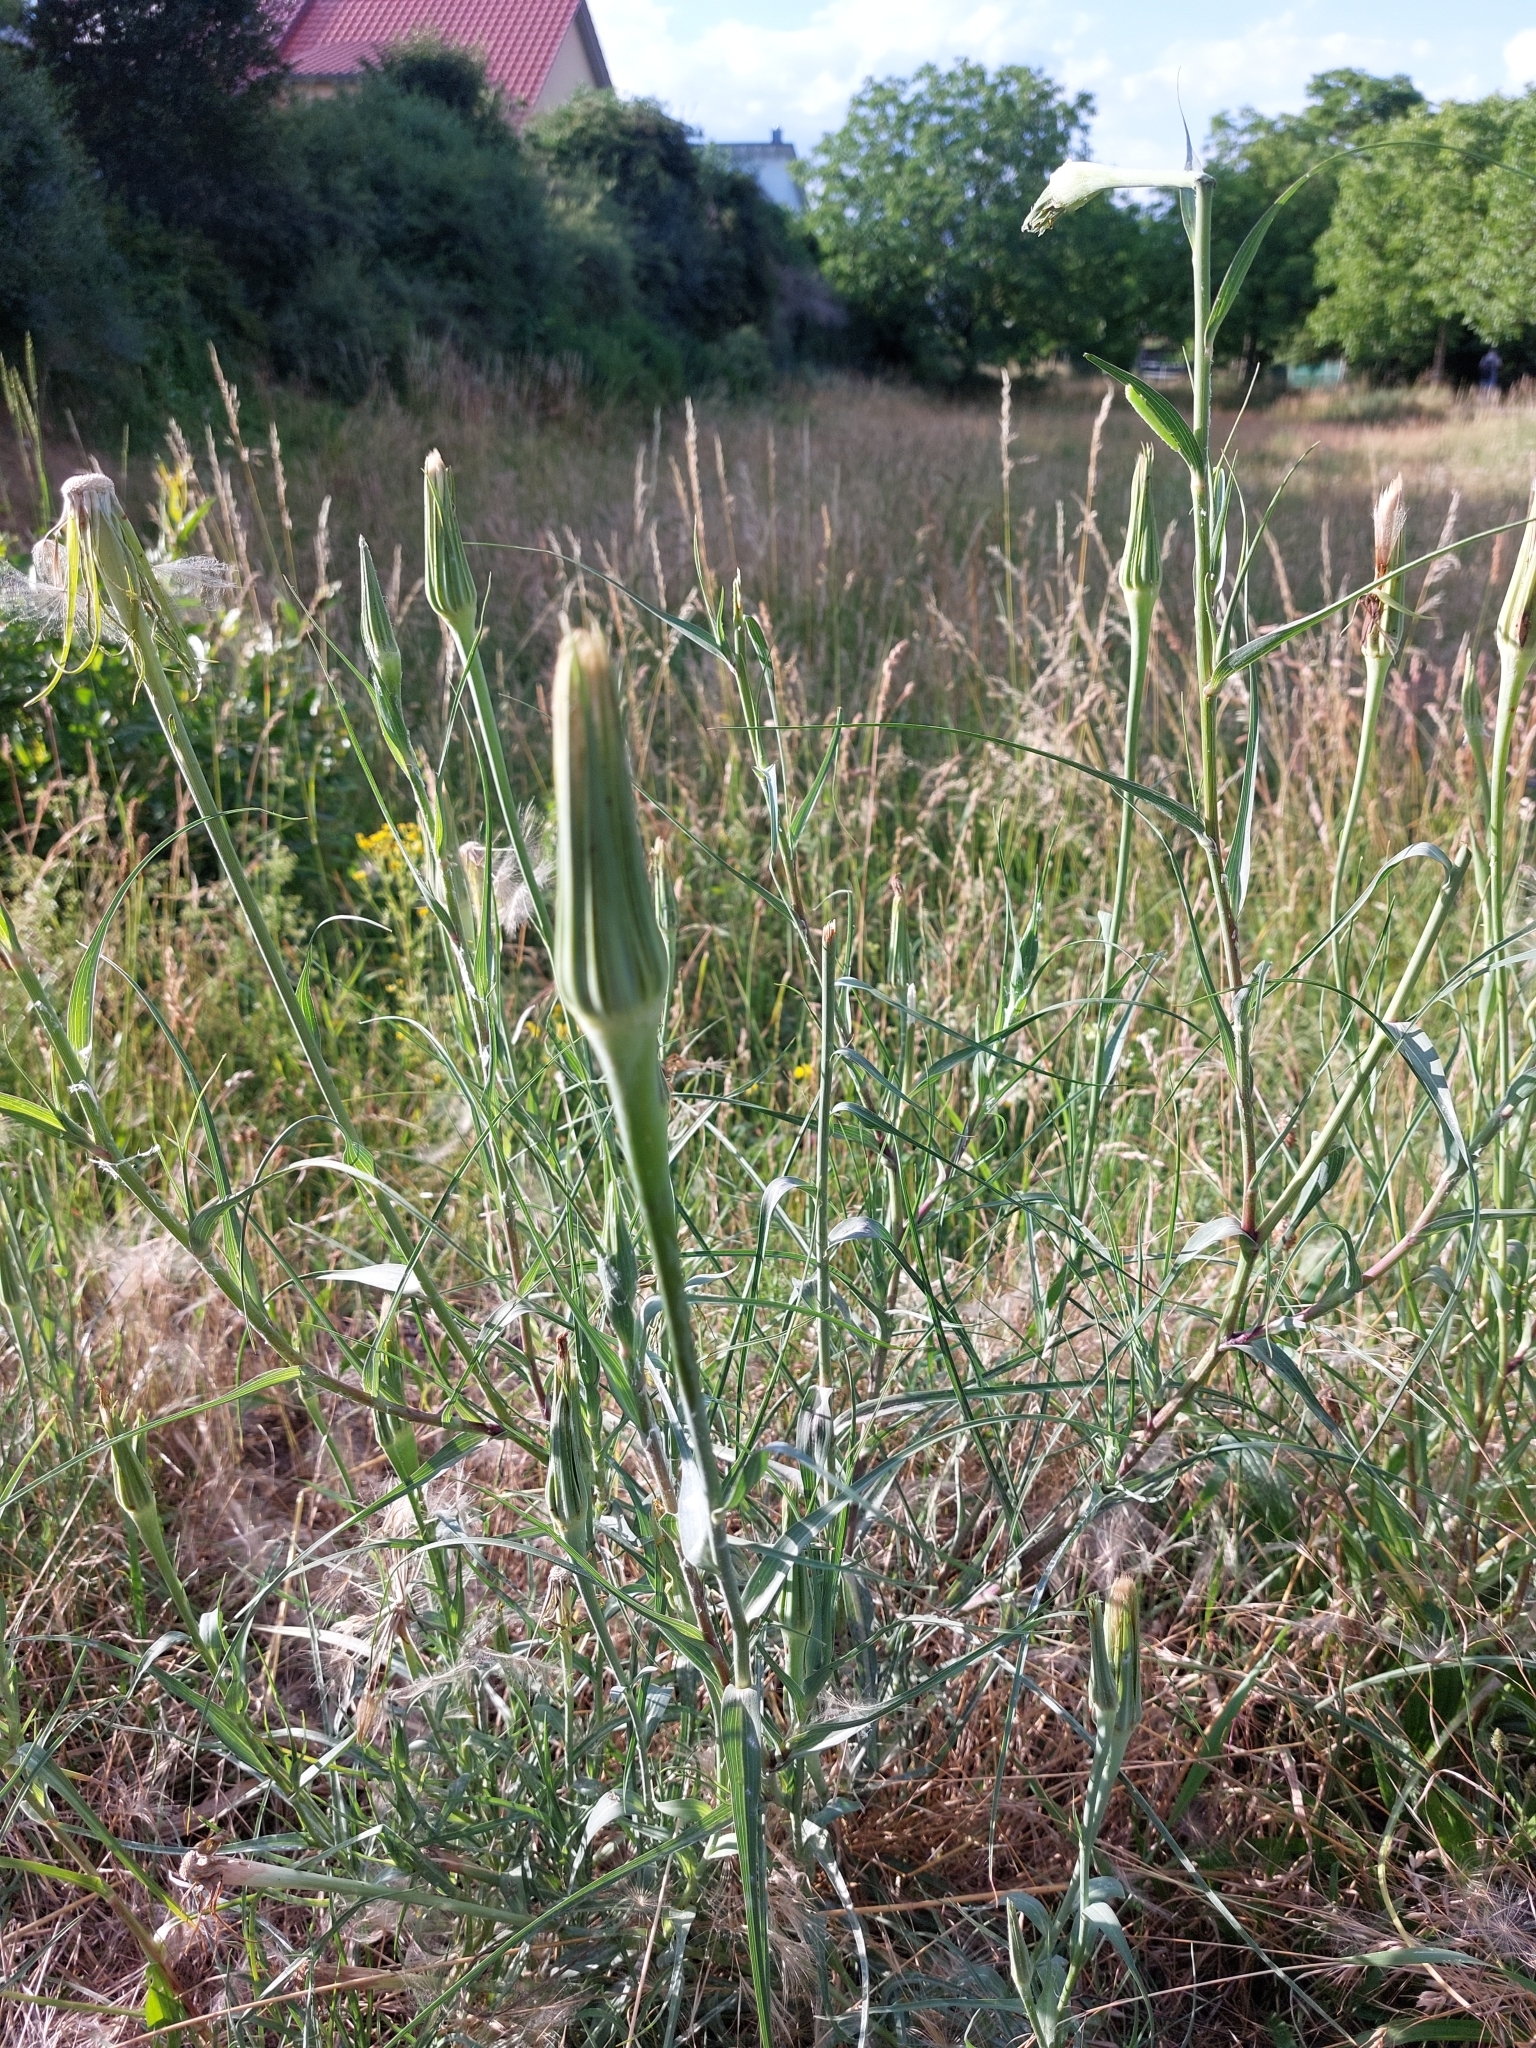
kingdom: Plantae
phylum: Tracheophyta
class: Magnoliopsida
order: Asterales
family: Asteraceae
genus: Tragopogon
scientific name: Tragopogon dubius
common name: Yellow salsify
